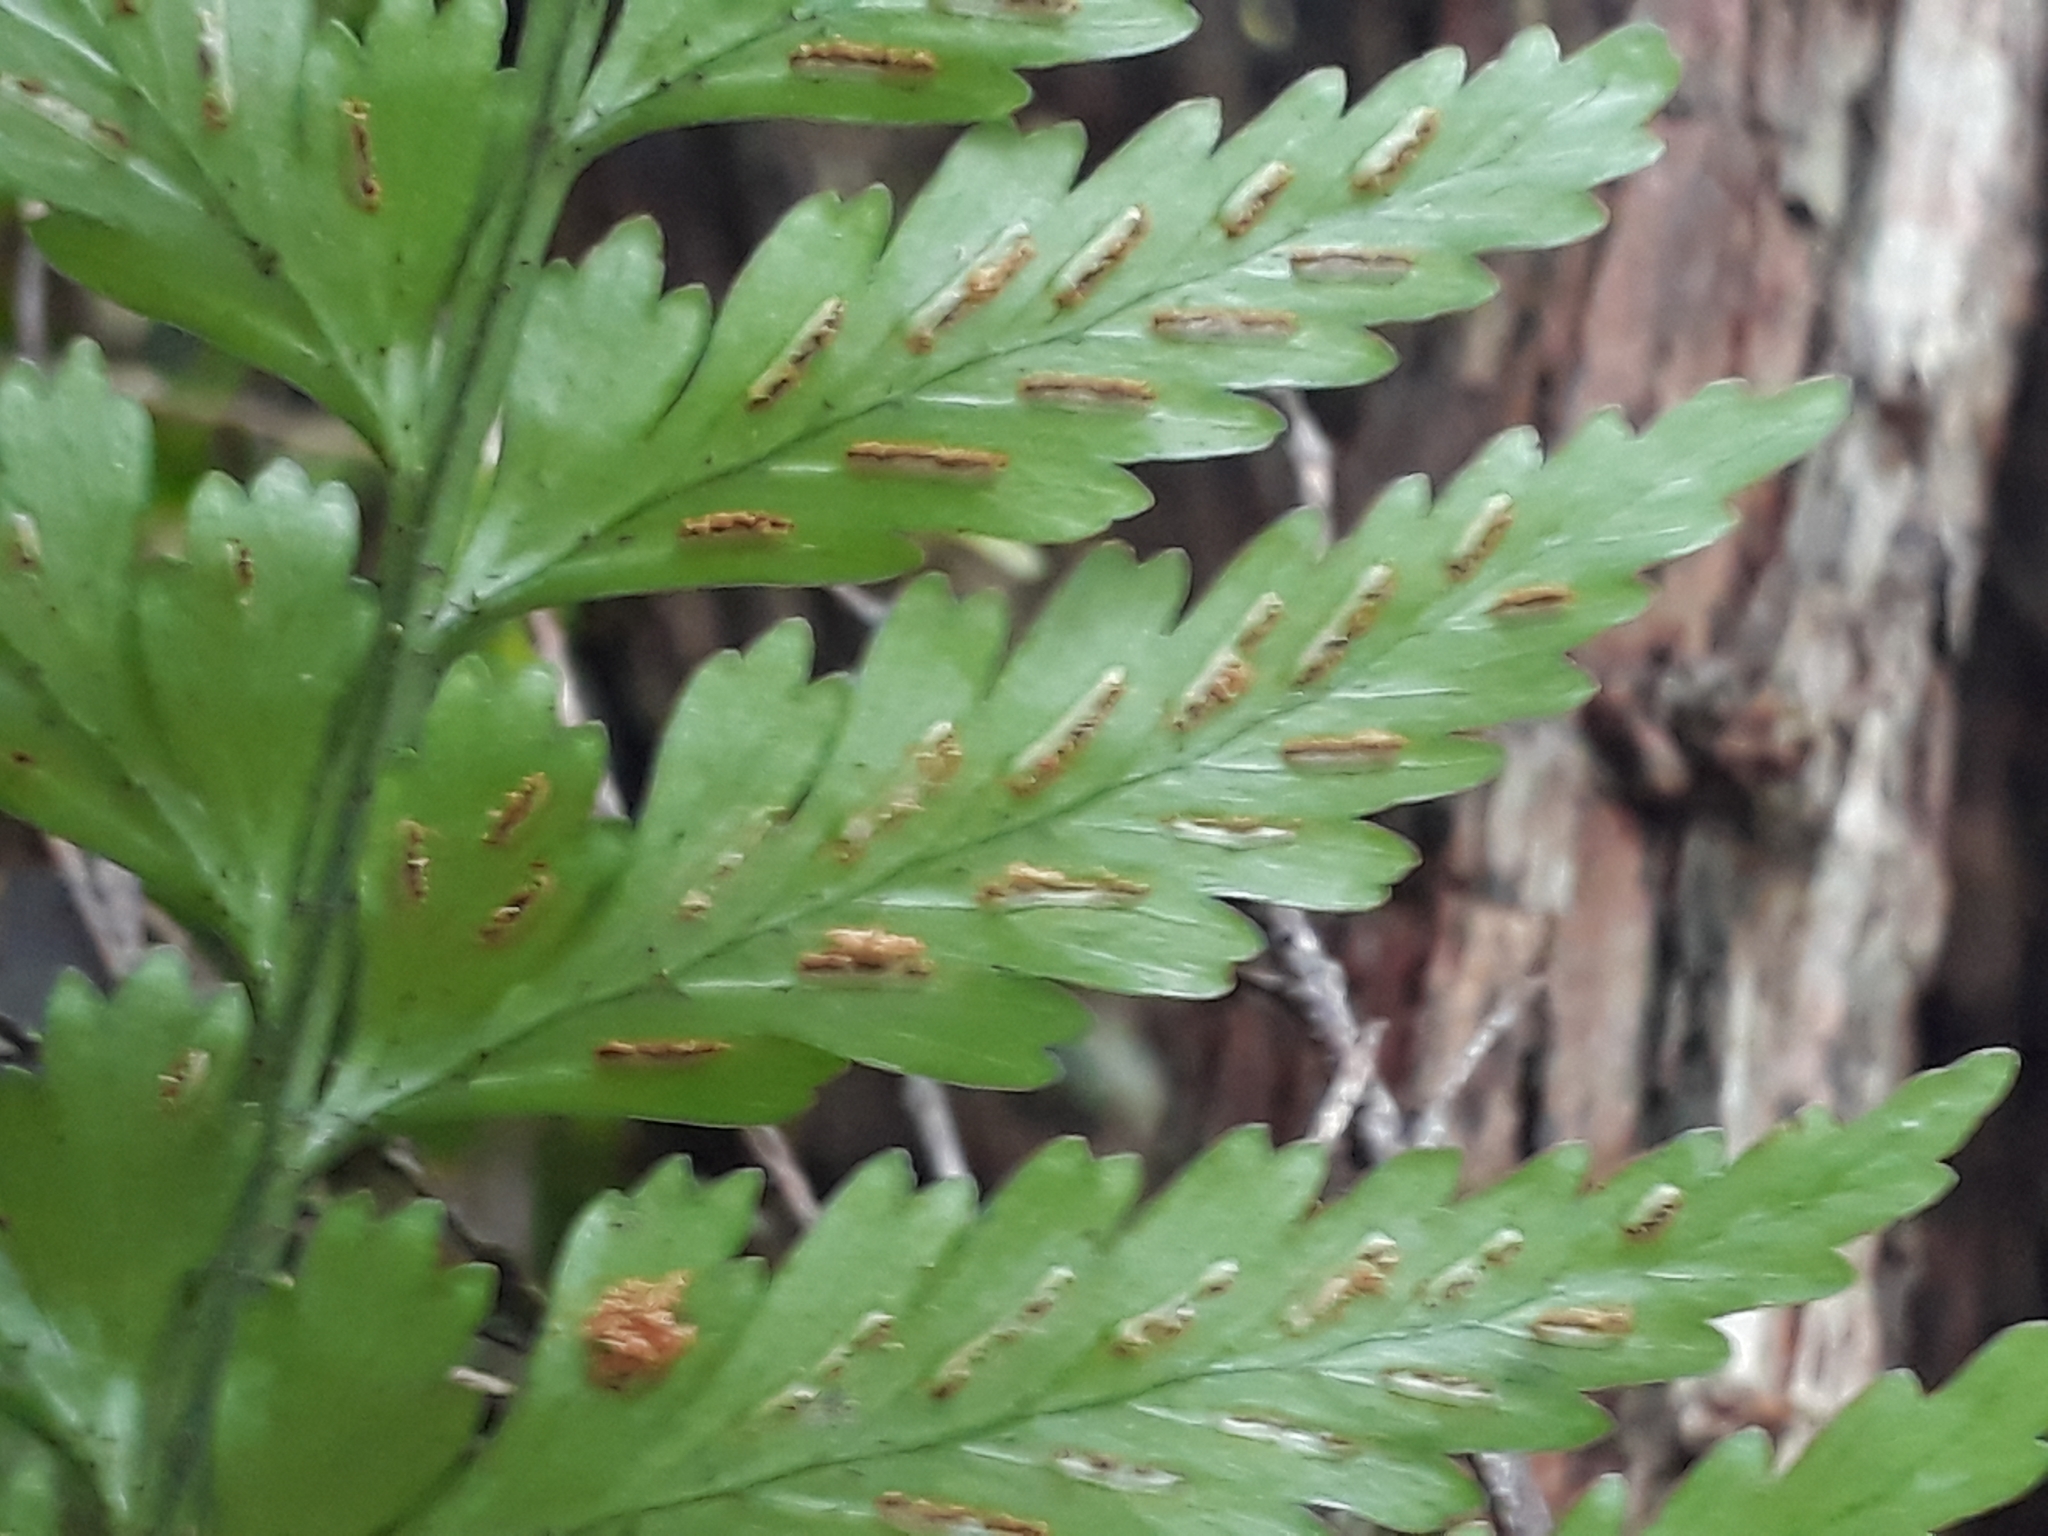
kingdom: Plantae
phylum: Tracheophyta
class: Polypodiopsida
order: Polypodiales
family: Aspleniaceae
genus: Asplenium
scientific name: Asplenium lamprophyllum
